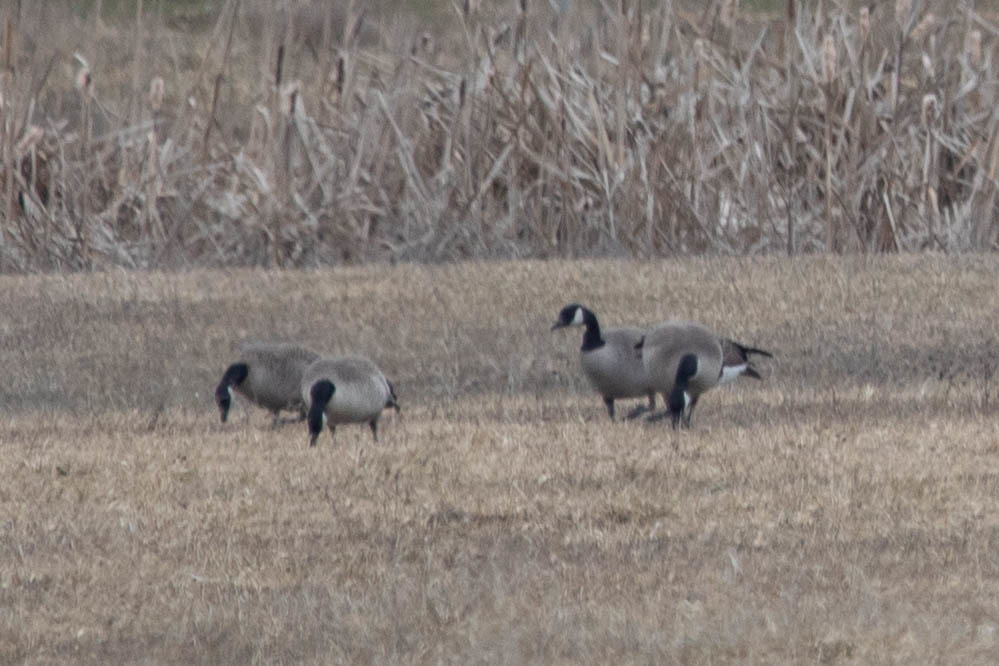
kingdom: Animalia
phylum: Chordata
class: Aves
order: Anseriformes
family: Anatidae
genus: Branta
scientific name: Branta hutchinsii
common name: Cackling goose
